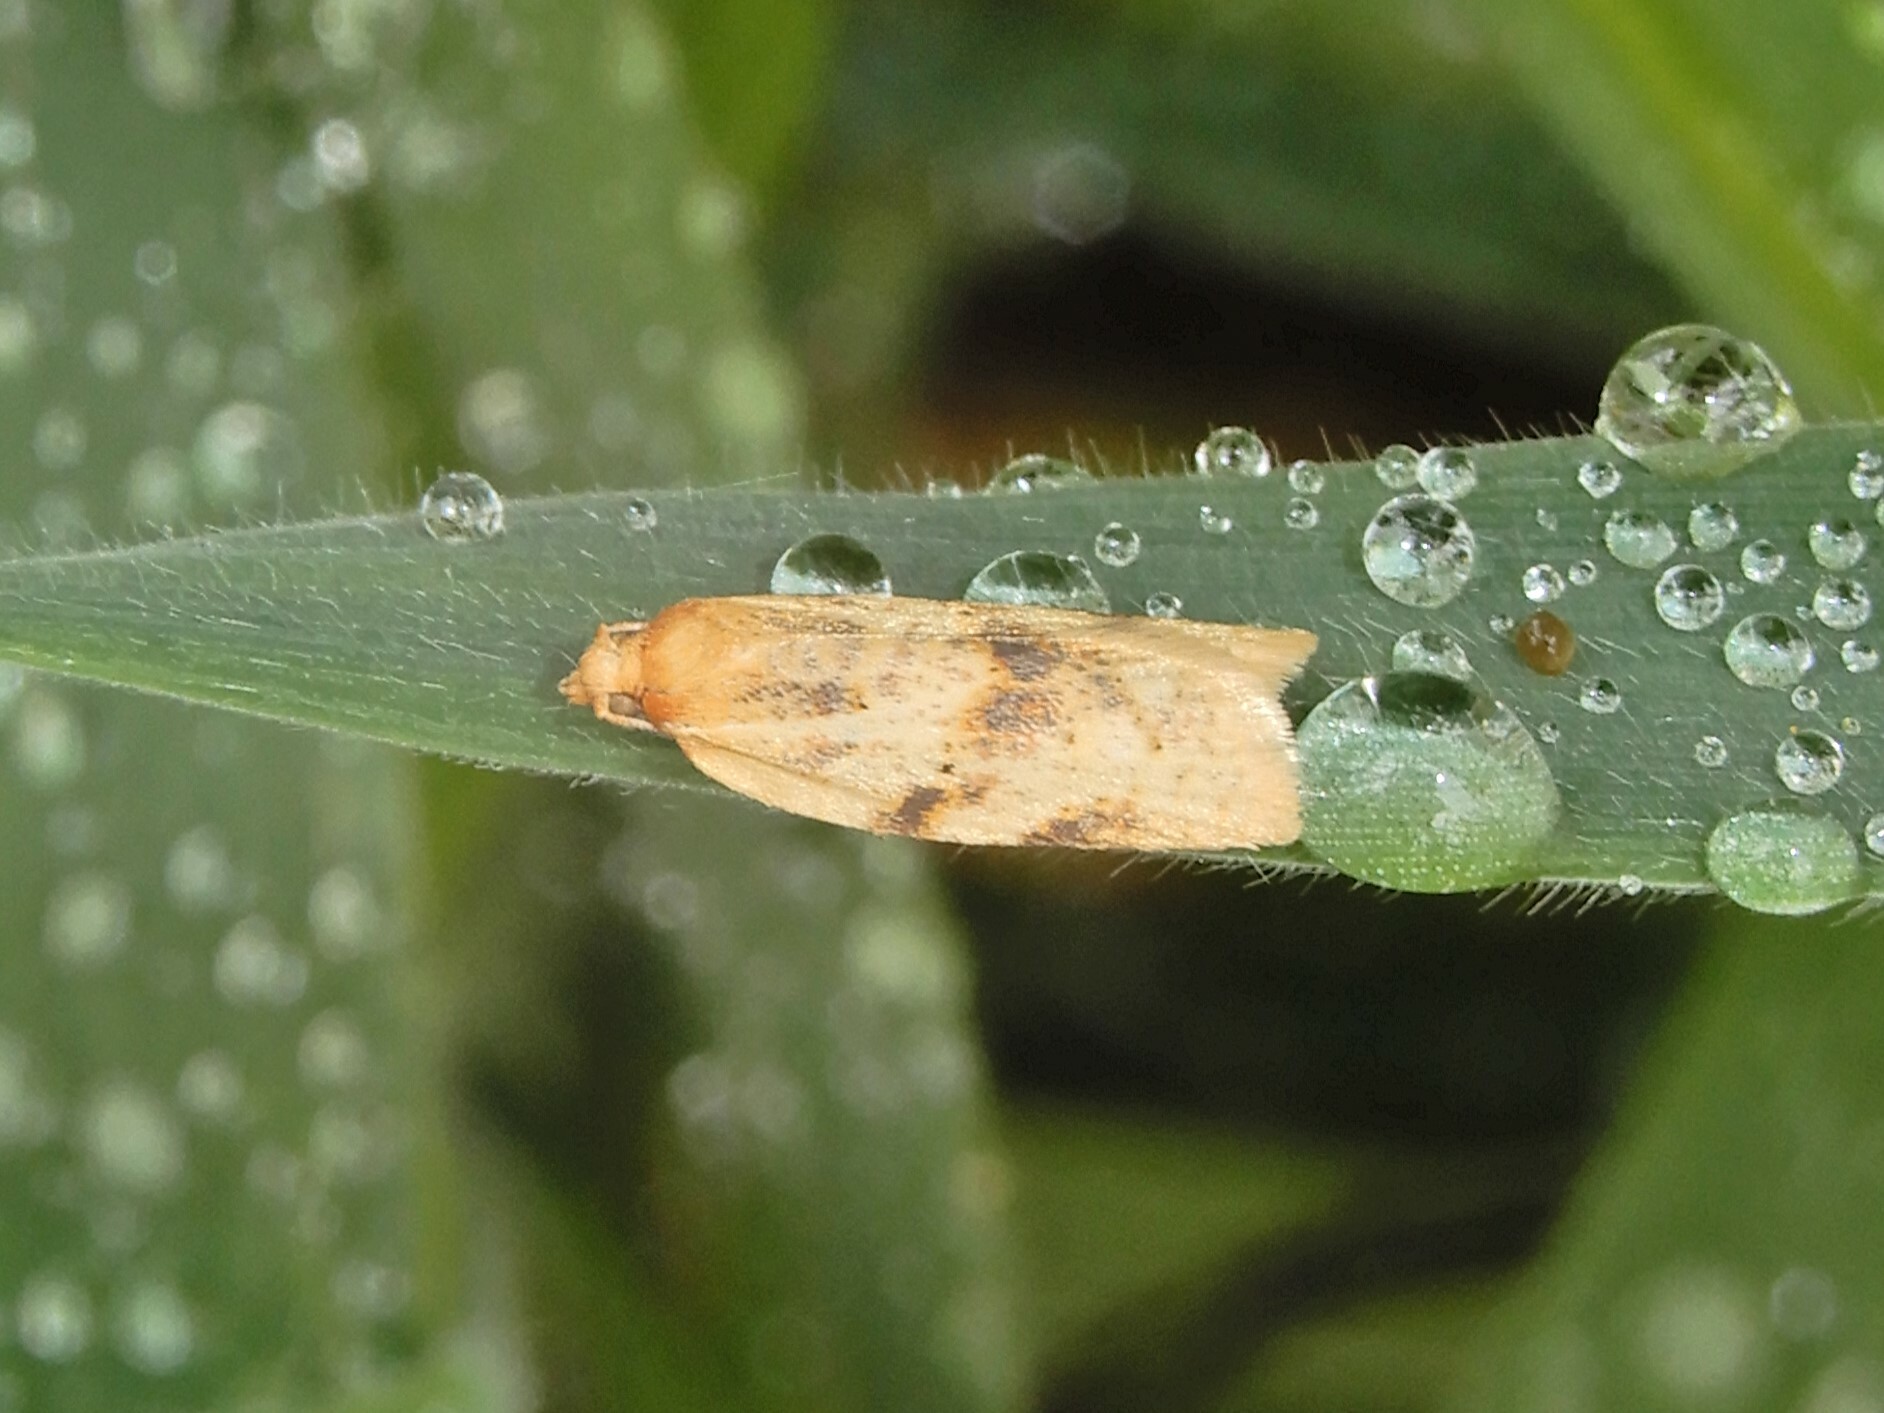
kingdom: Animalia
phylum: Arthropoda
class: Insecta
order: Lepidoptera
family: Tortricidae
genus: Clepsis
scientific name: Clepsis
